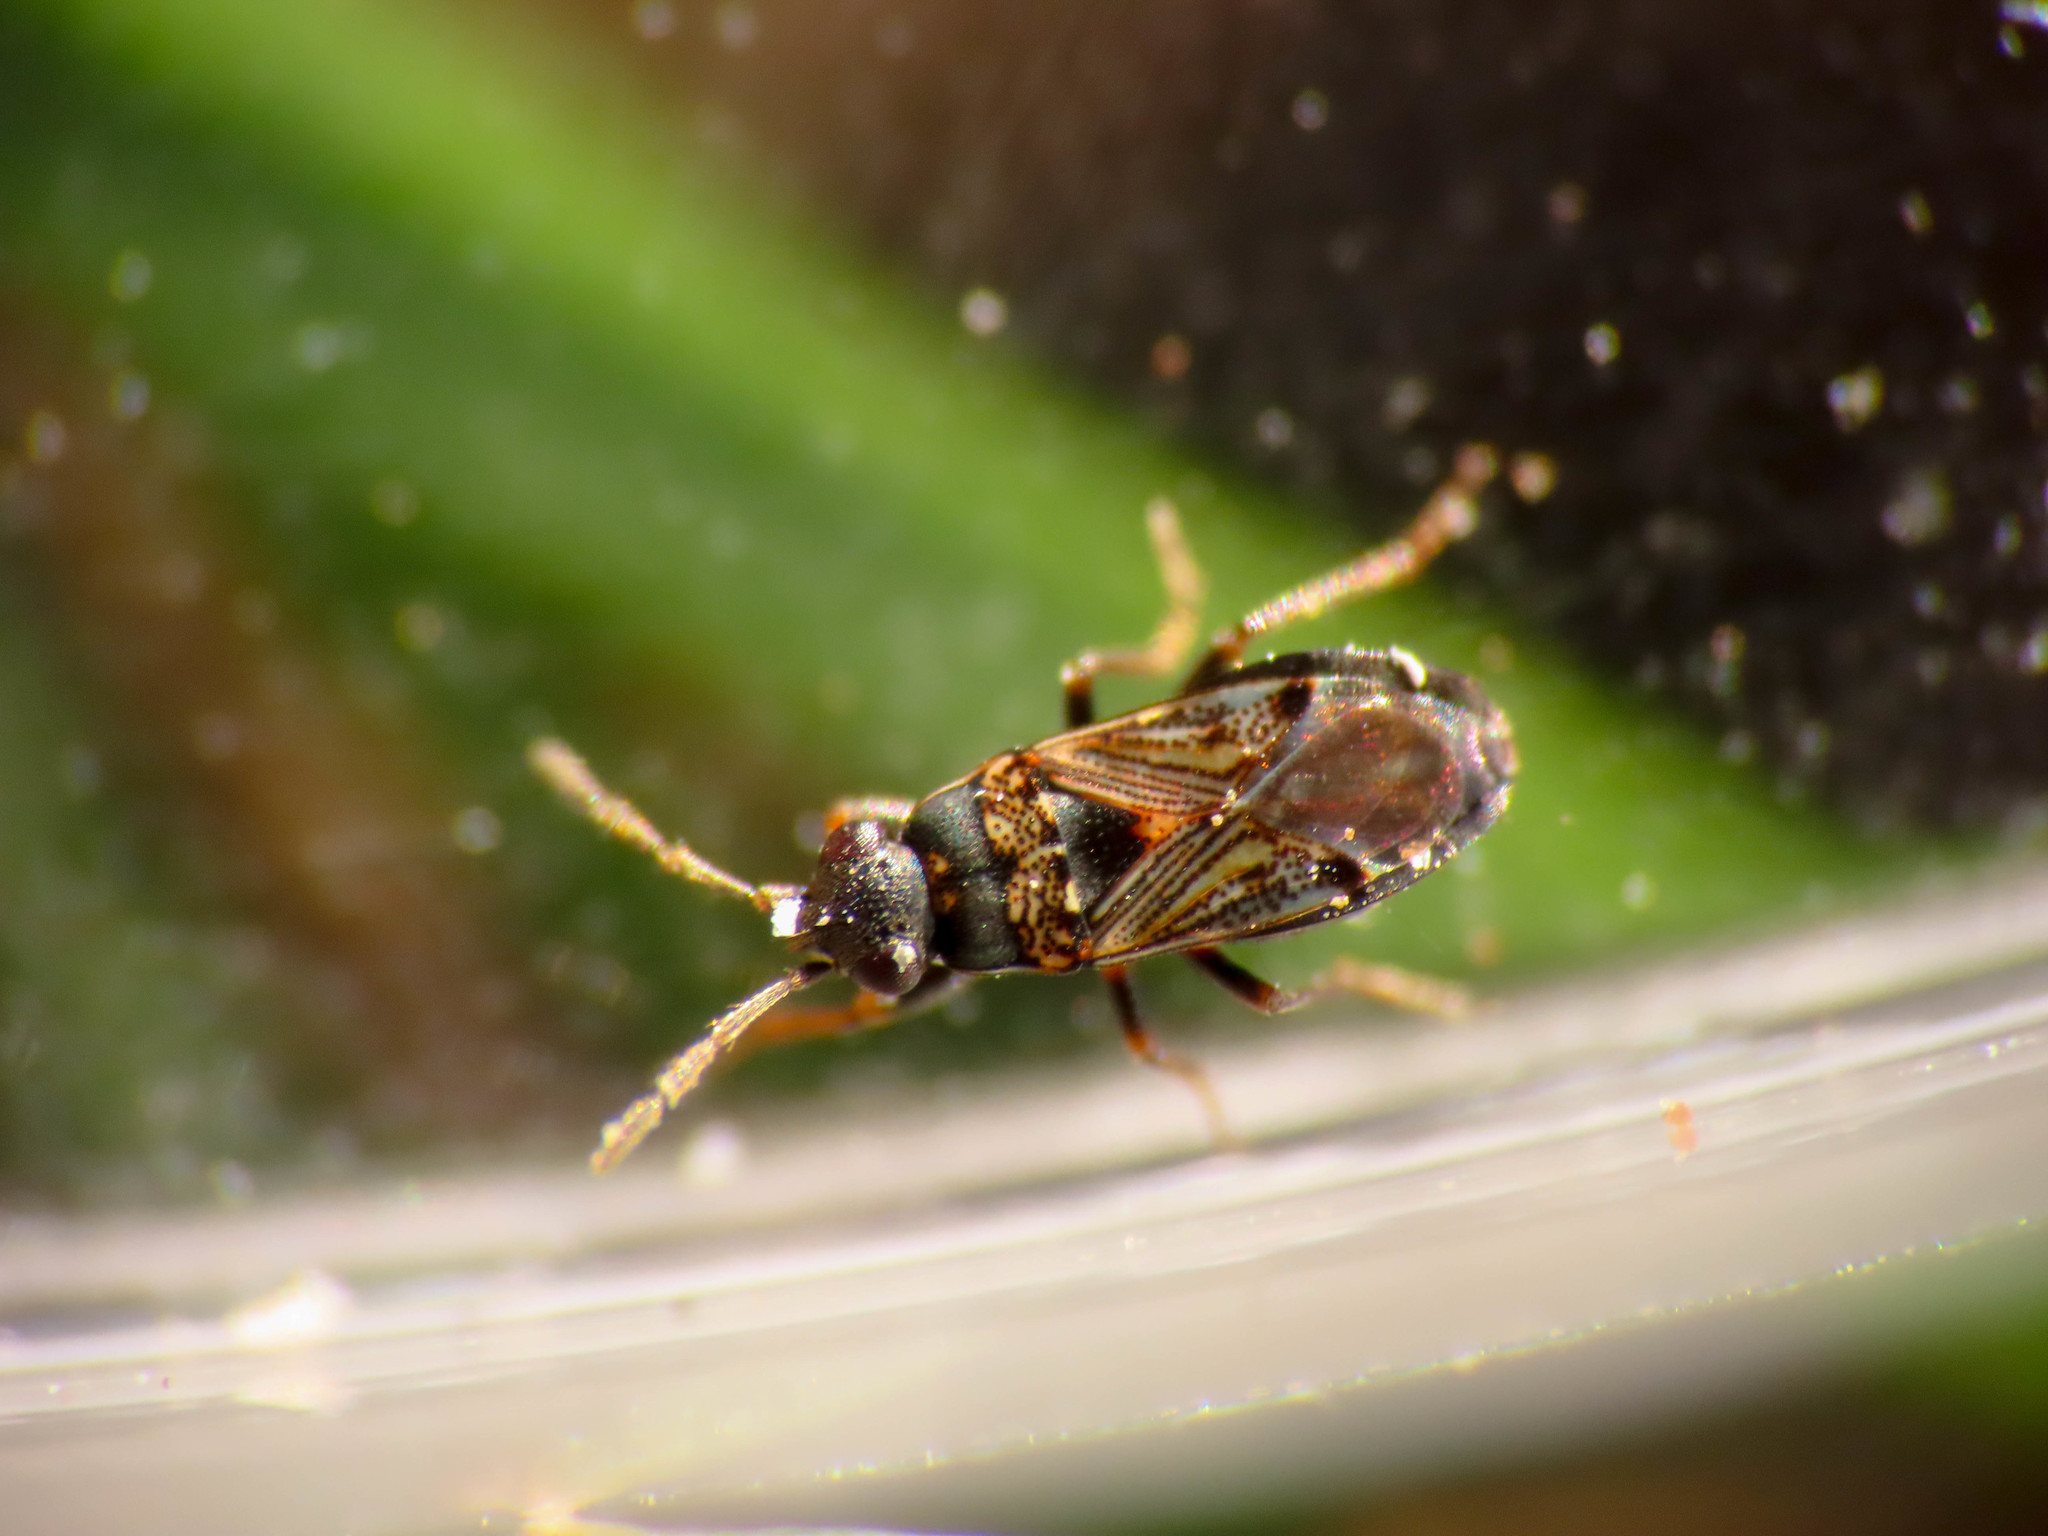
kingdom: Animalia
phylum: Arthropoda
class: Insecta
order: Hemiptera
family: Rhyparochromidae
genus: Ischnocoris
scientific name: Ischnocoris punctulatus
